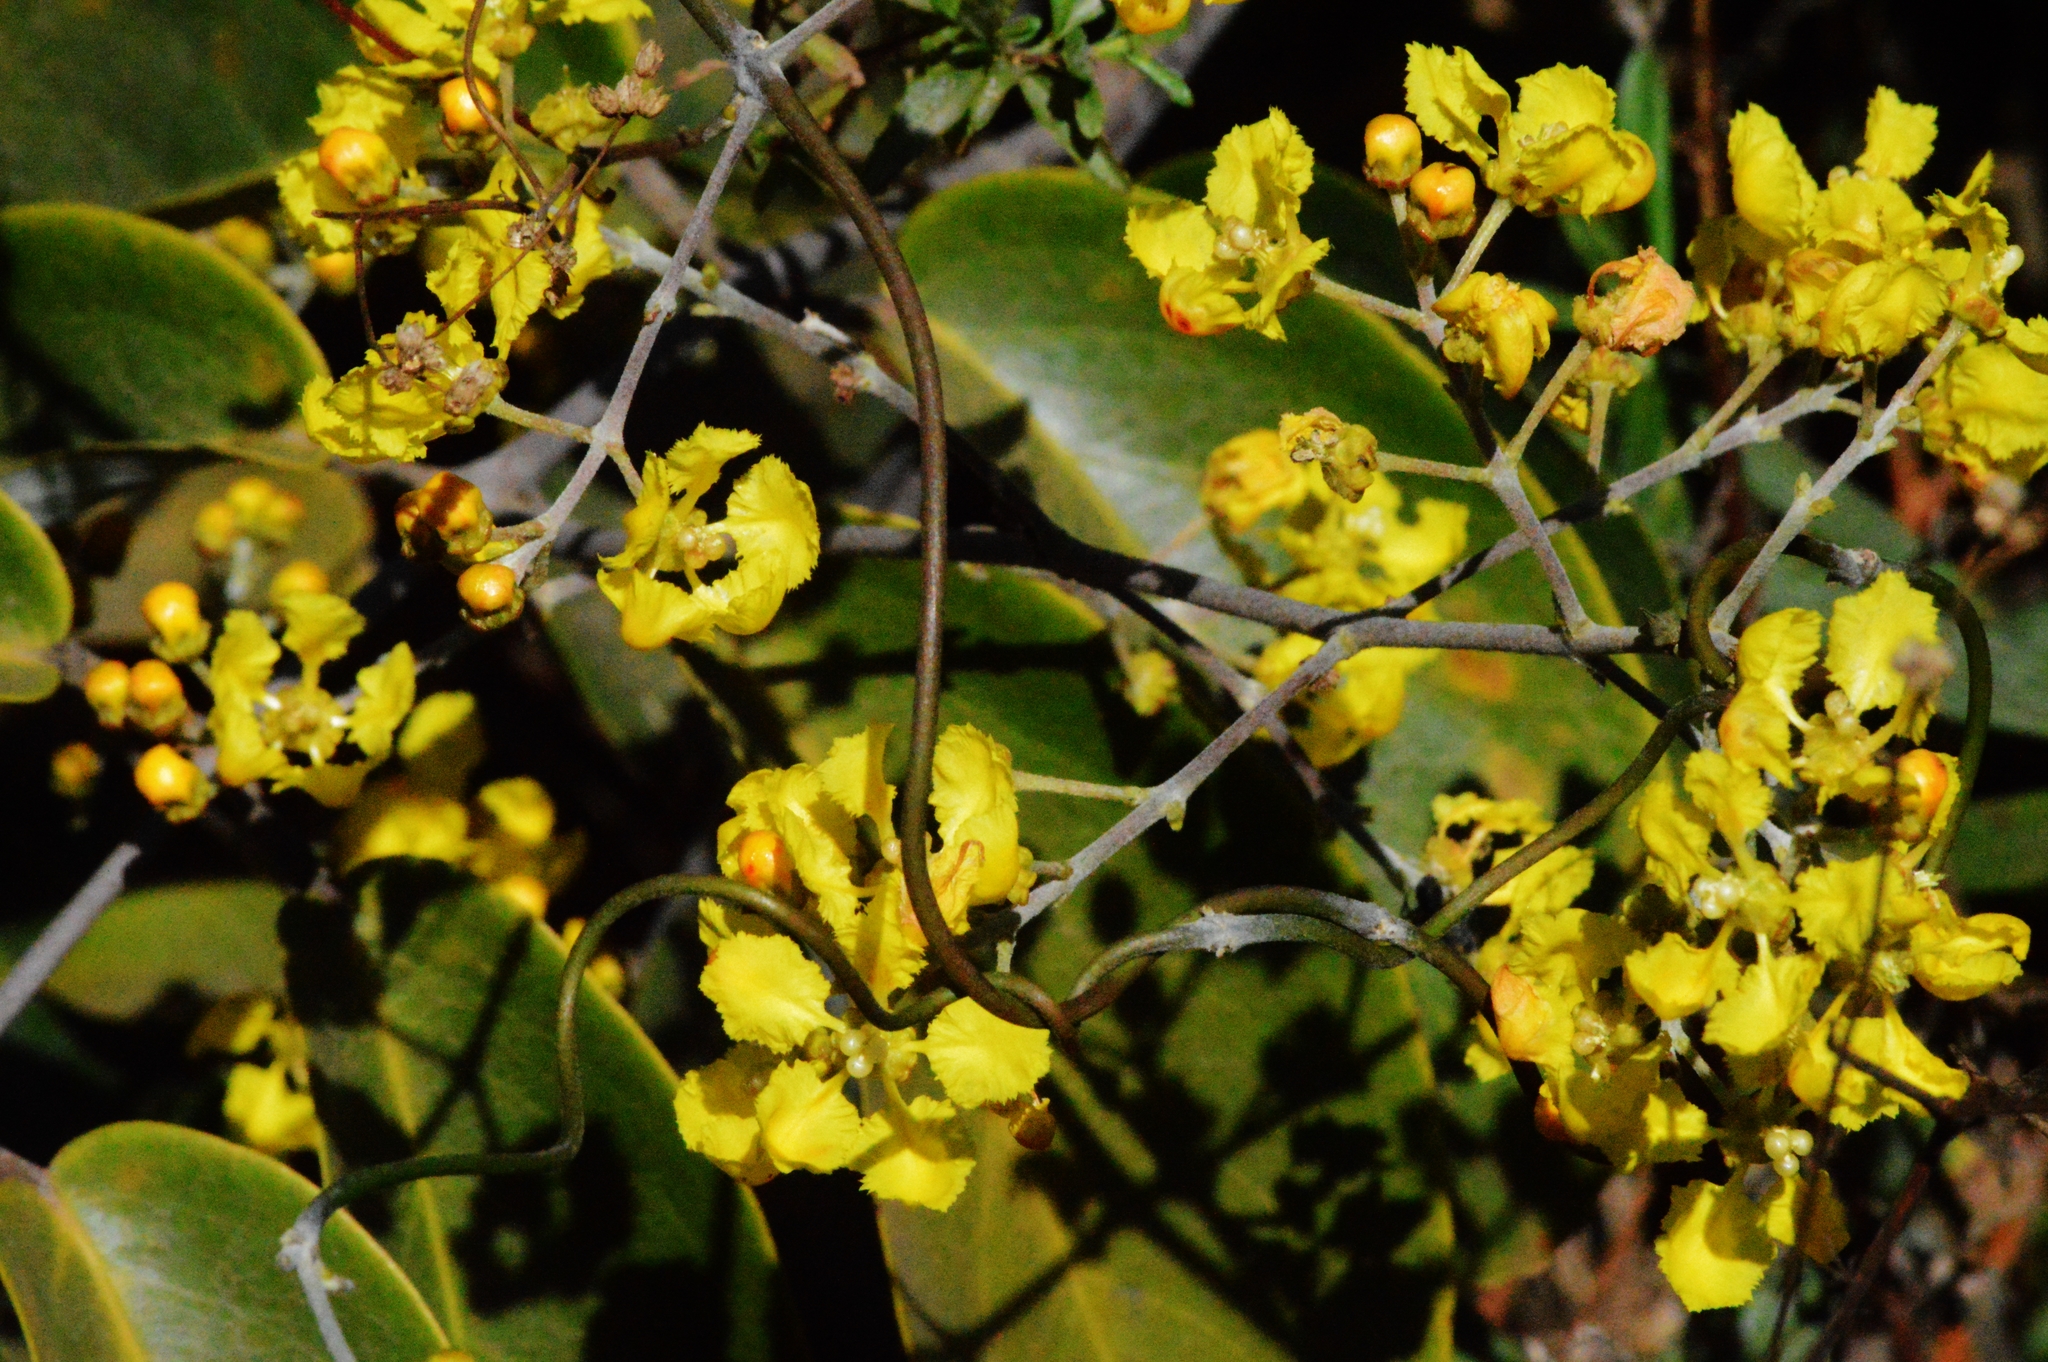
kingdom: Plantae
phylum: Tracheophyta
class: Magnoliopsida
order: Malpighiales
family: Malpighiaceae
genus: Banisteriopsis
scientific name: Banisteriopsis anisandra
